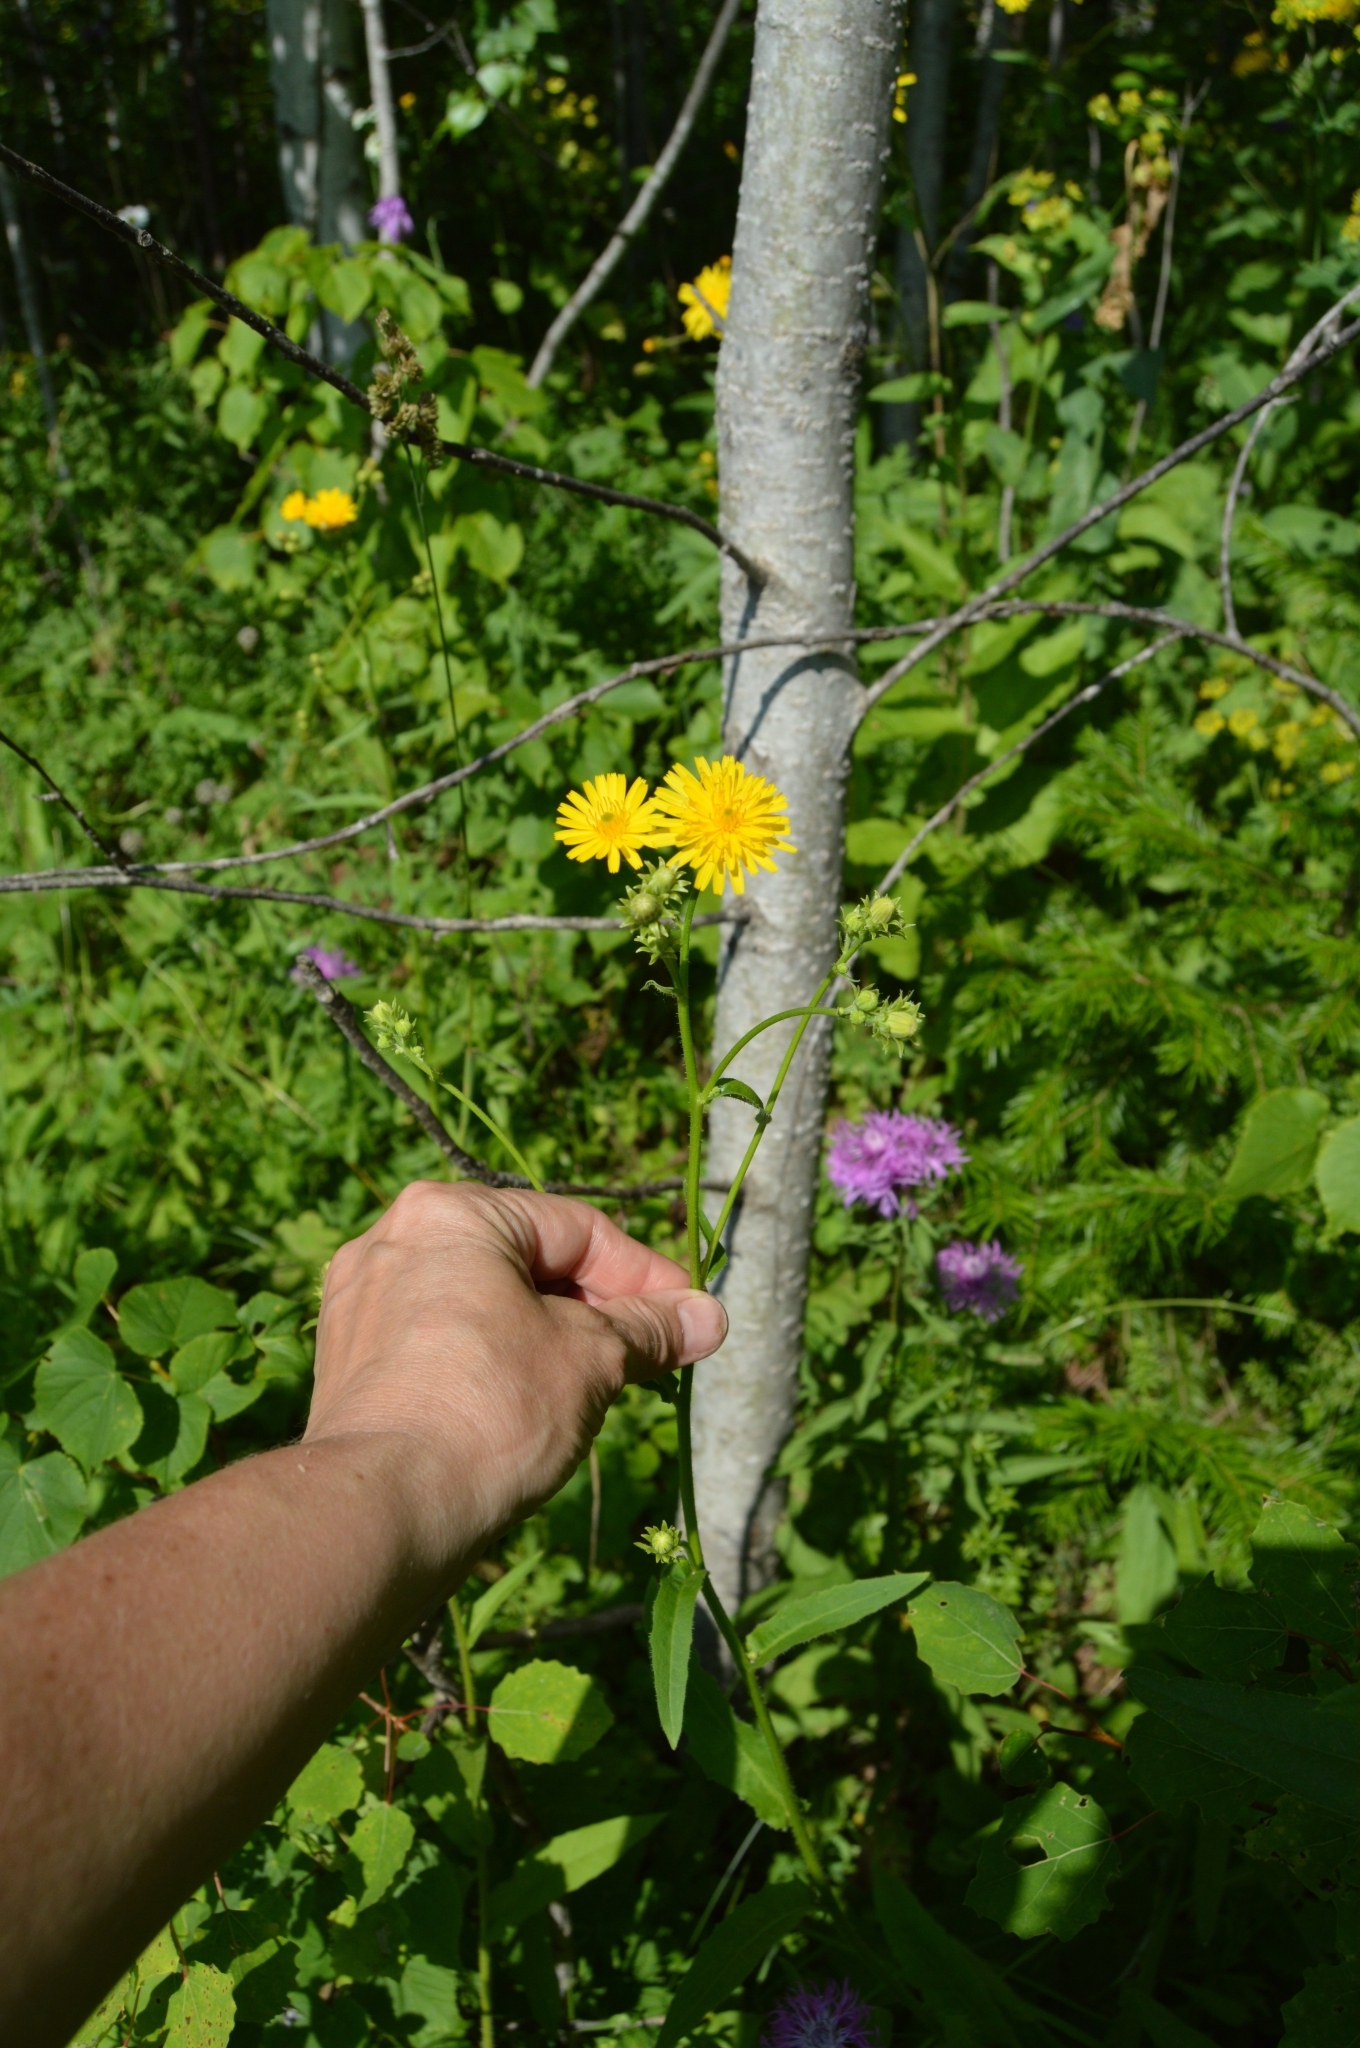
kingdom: Plantae
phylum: Tracheophyta
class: Magnoliopsida
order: Asterales
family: Asteraceae
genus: Picris
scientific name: Picris hieracioides
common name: Hawkweed oxtongue
